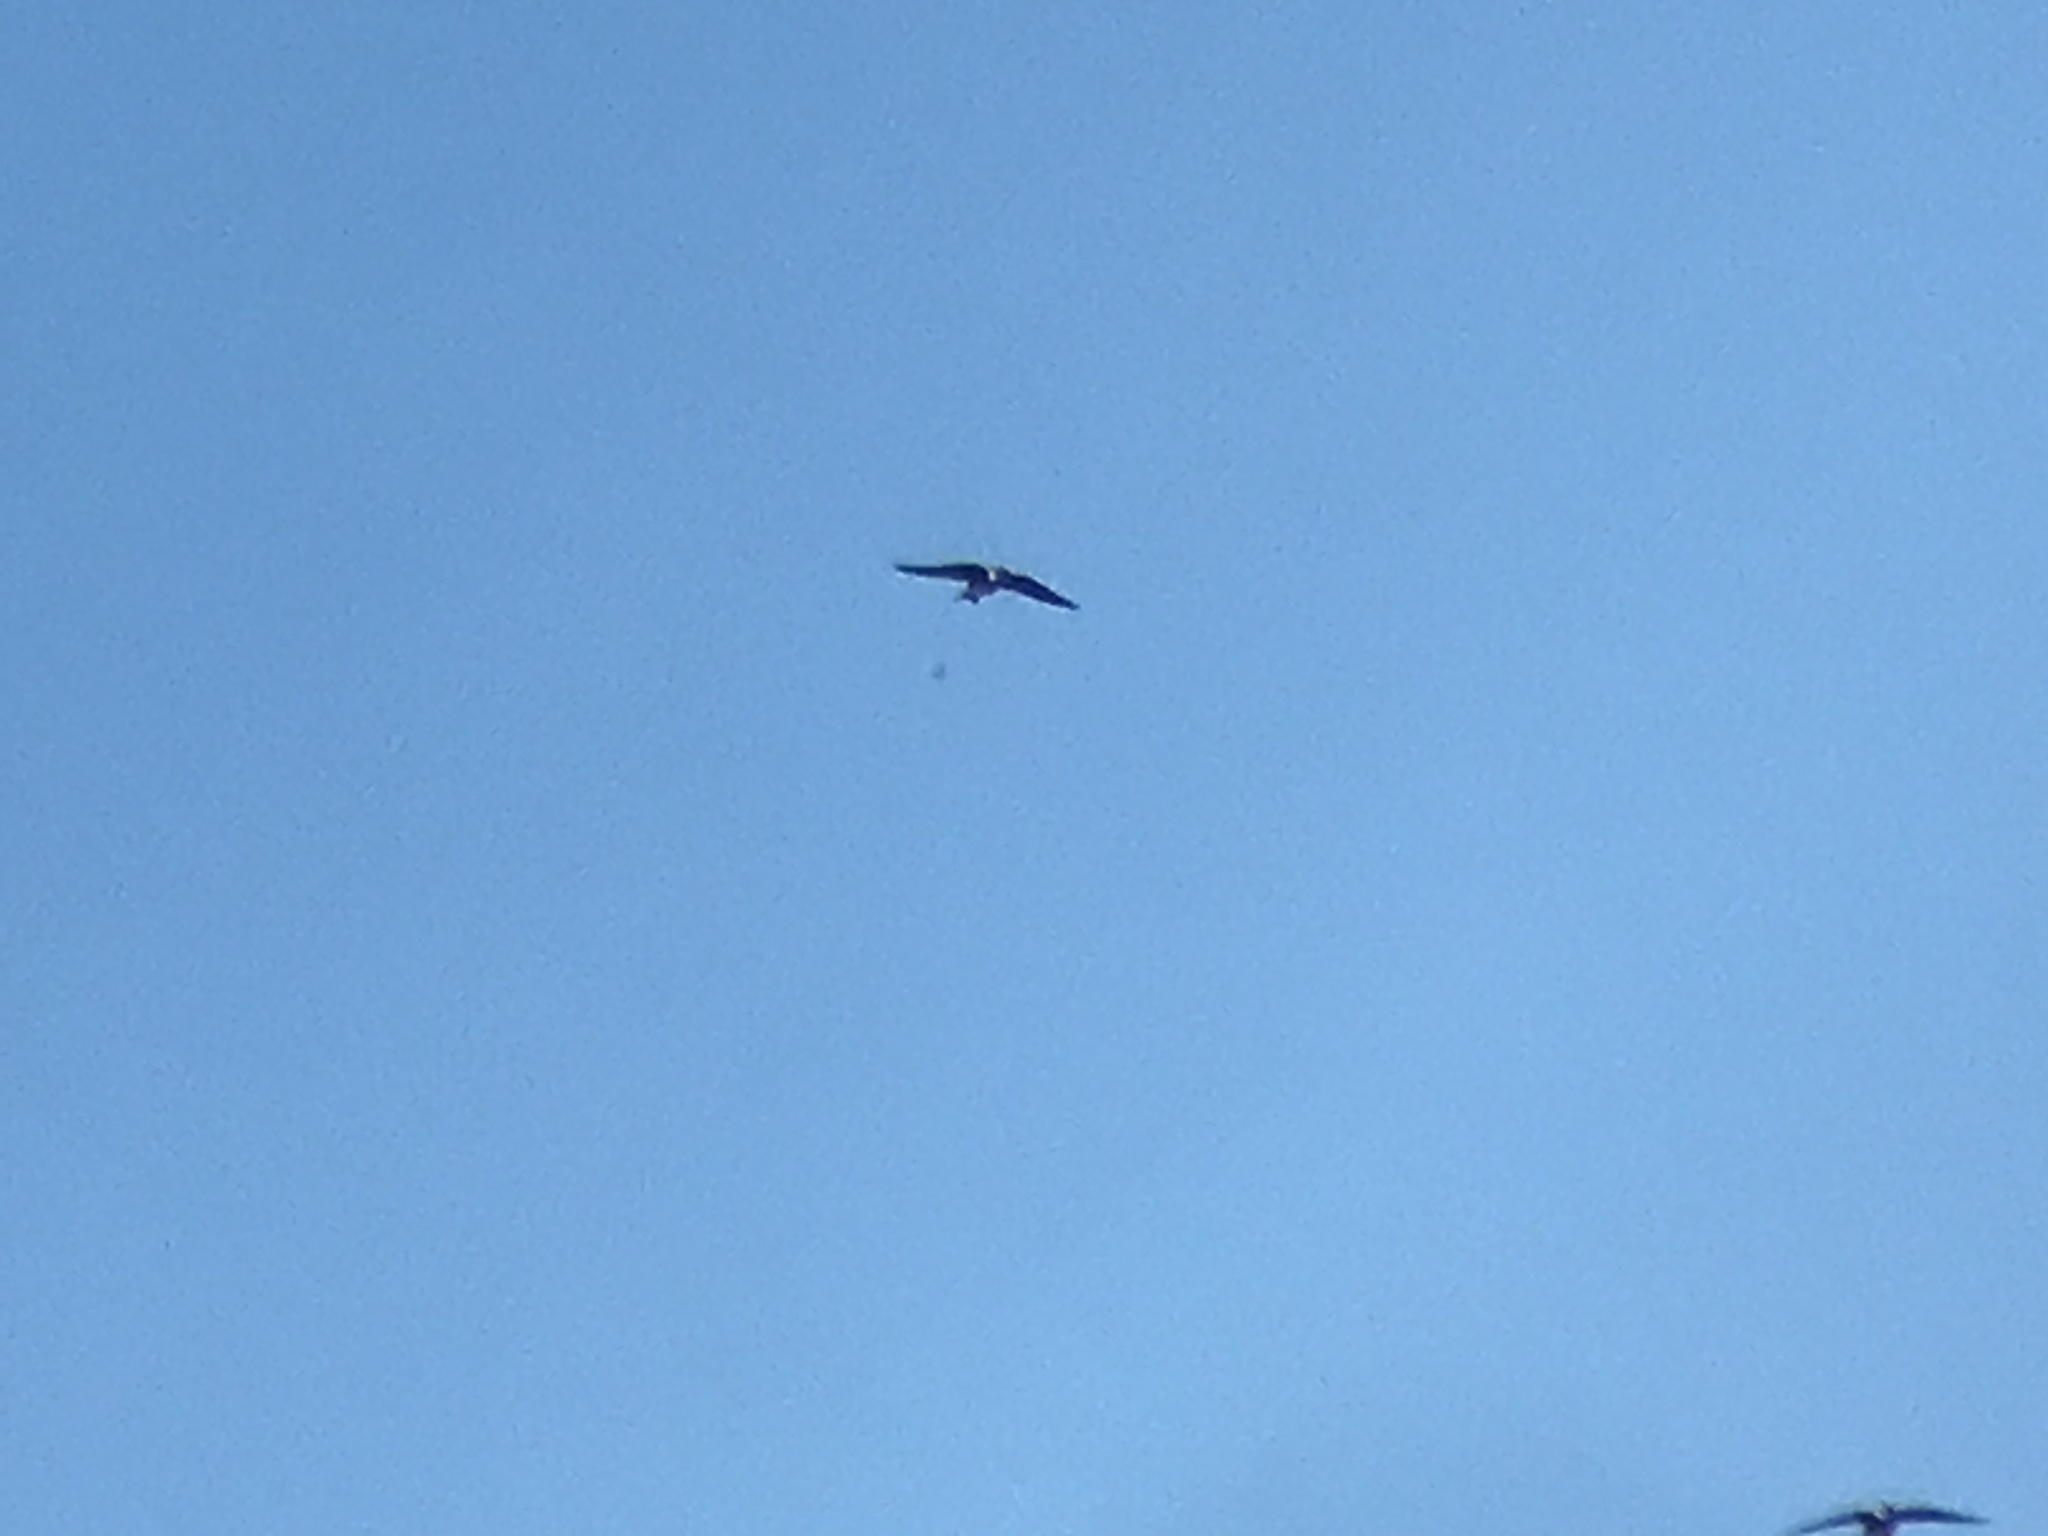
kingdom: Animalia
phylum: Chordata
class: Aves
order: Passeriformes
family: Hirundinidae
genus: Progne
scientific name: Progne subis
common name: Purple martin
